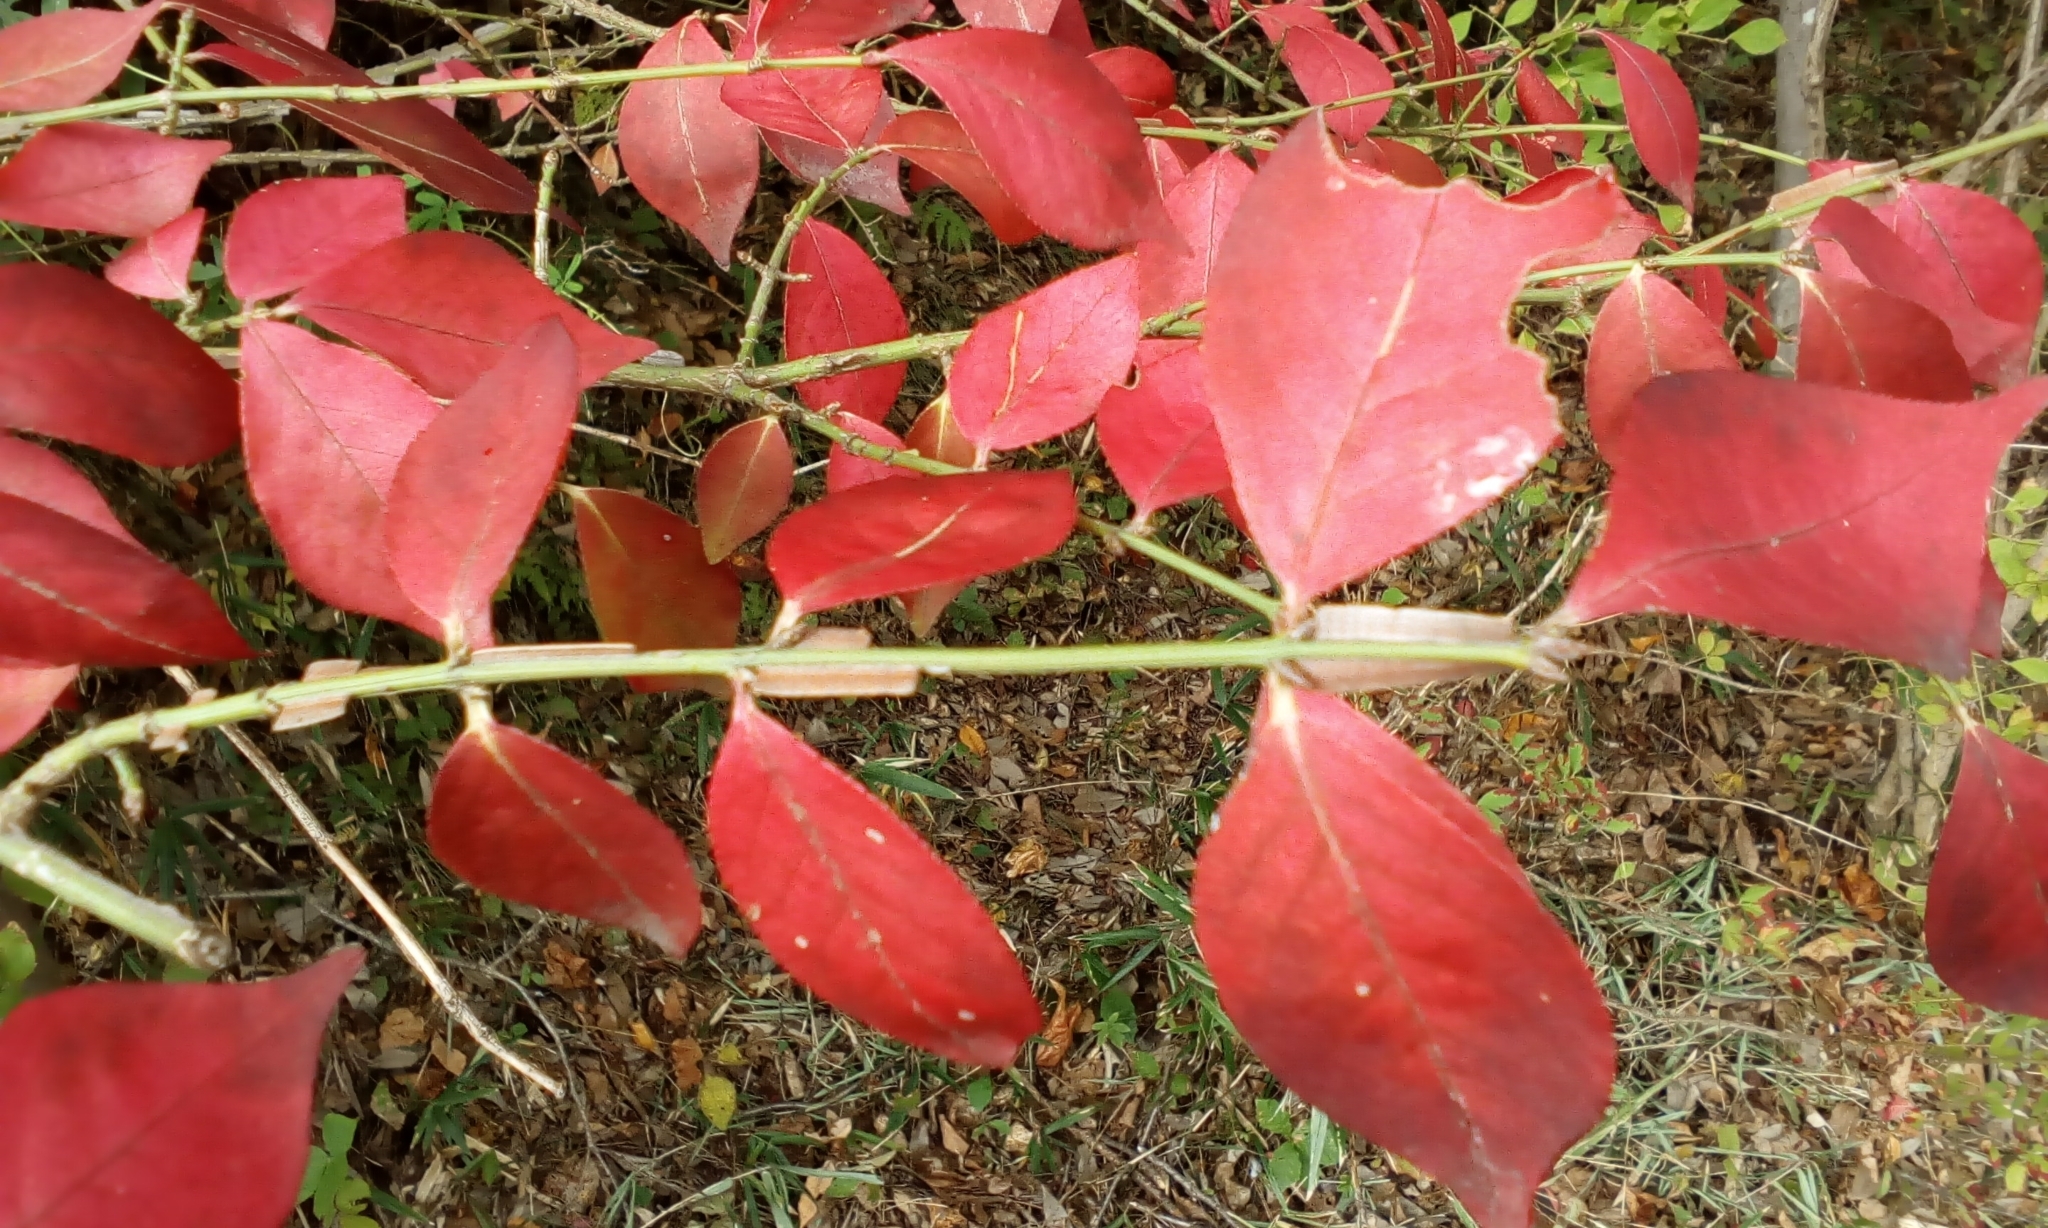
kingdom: Plantae
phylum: Tracheophyta
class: Magnoliopsida
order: Celastrales
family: Celastraceae
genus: Euonymus
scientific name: Euonymus alatus
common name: Winged euonymus
